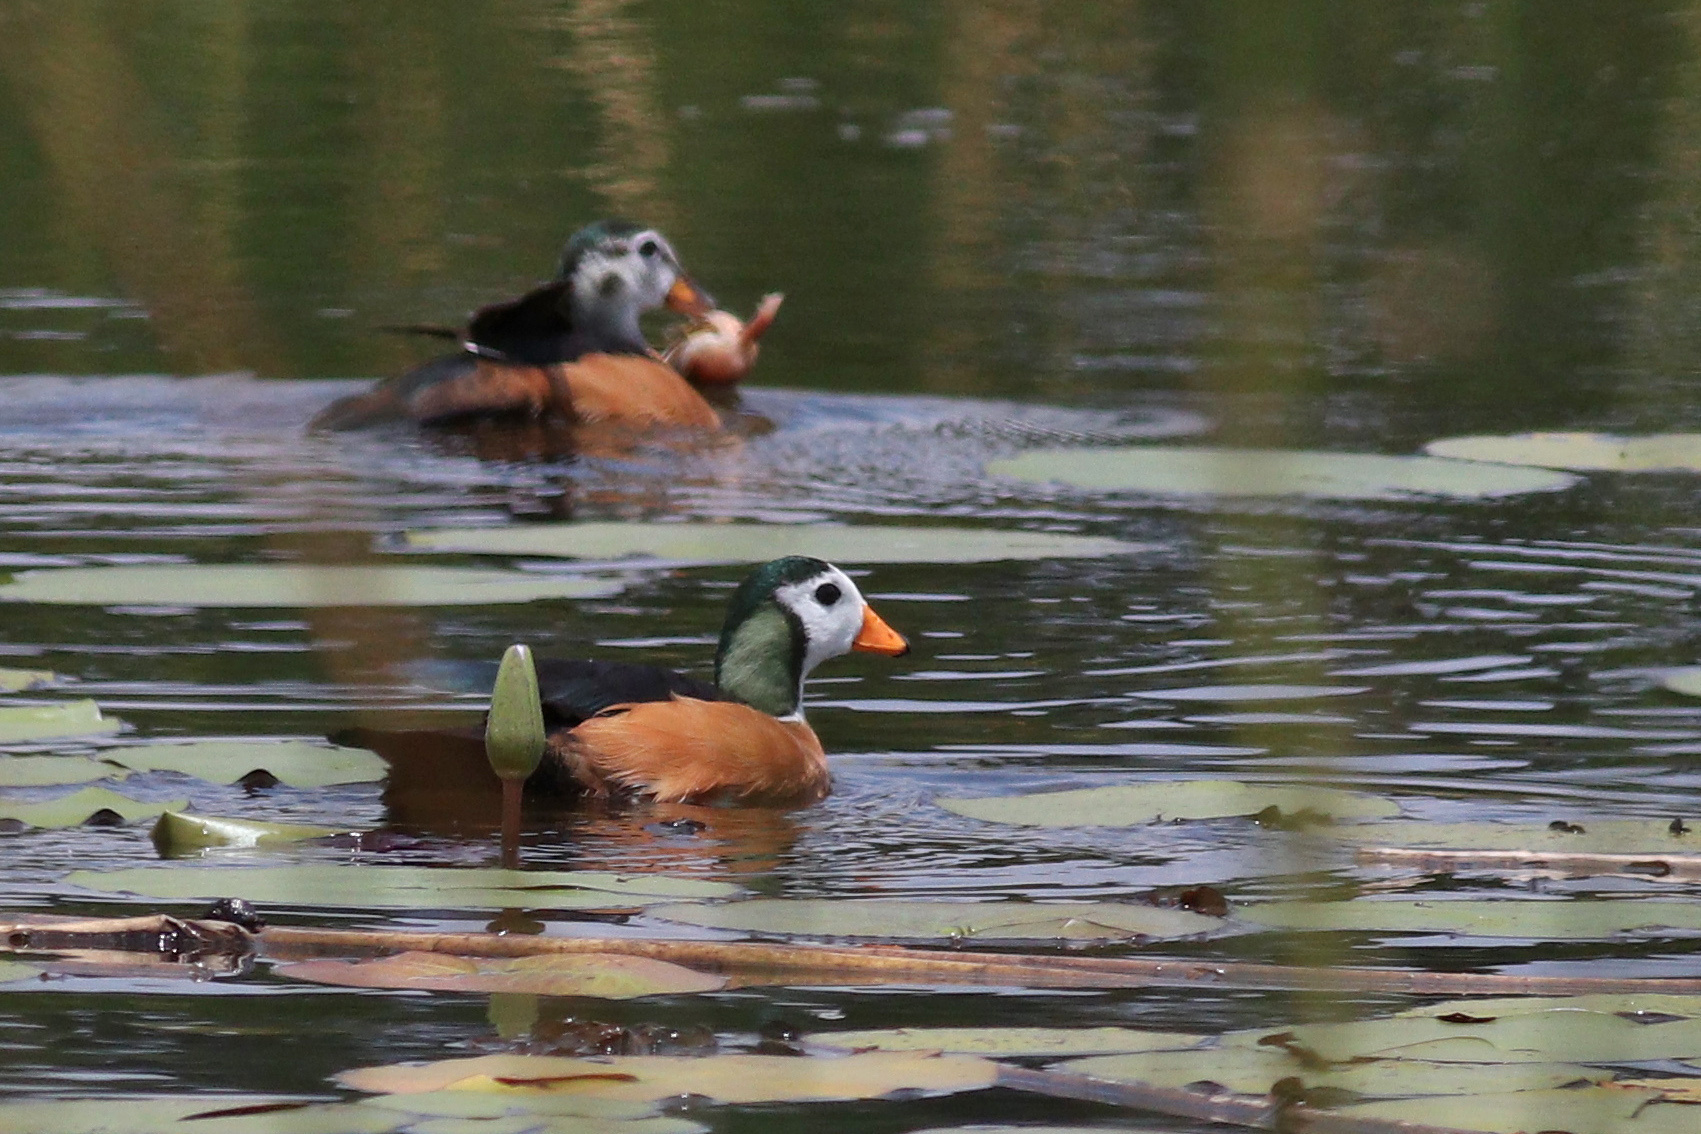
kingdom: Animalia
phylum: Chordata
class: Aves
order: Anseriformes
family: Anatidae
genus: Nettapus
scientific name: Nettapus auritus
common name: African pygmy-goose
